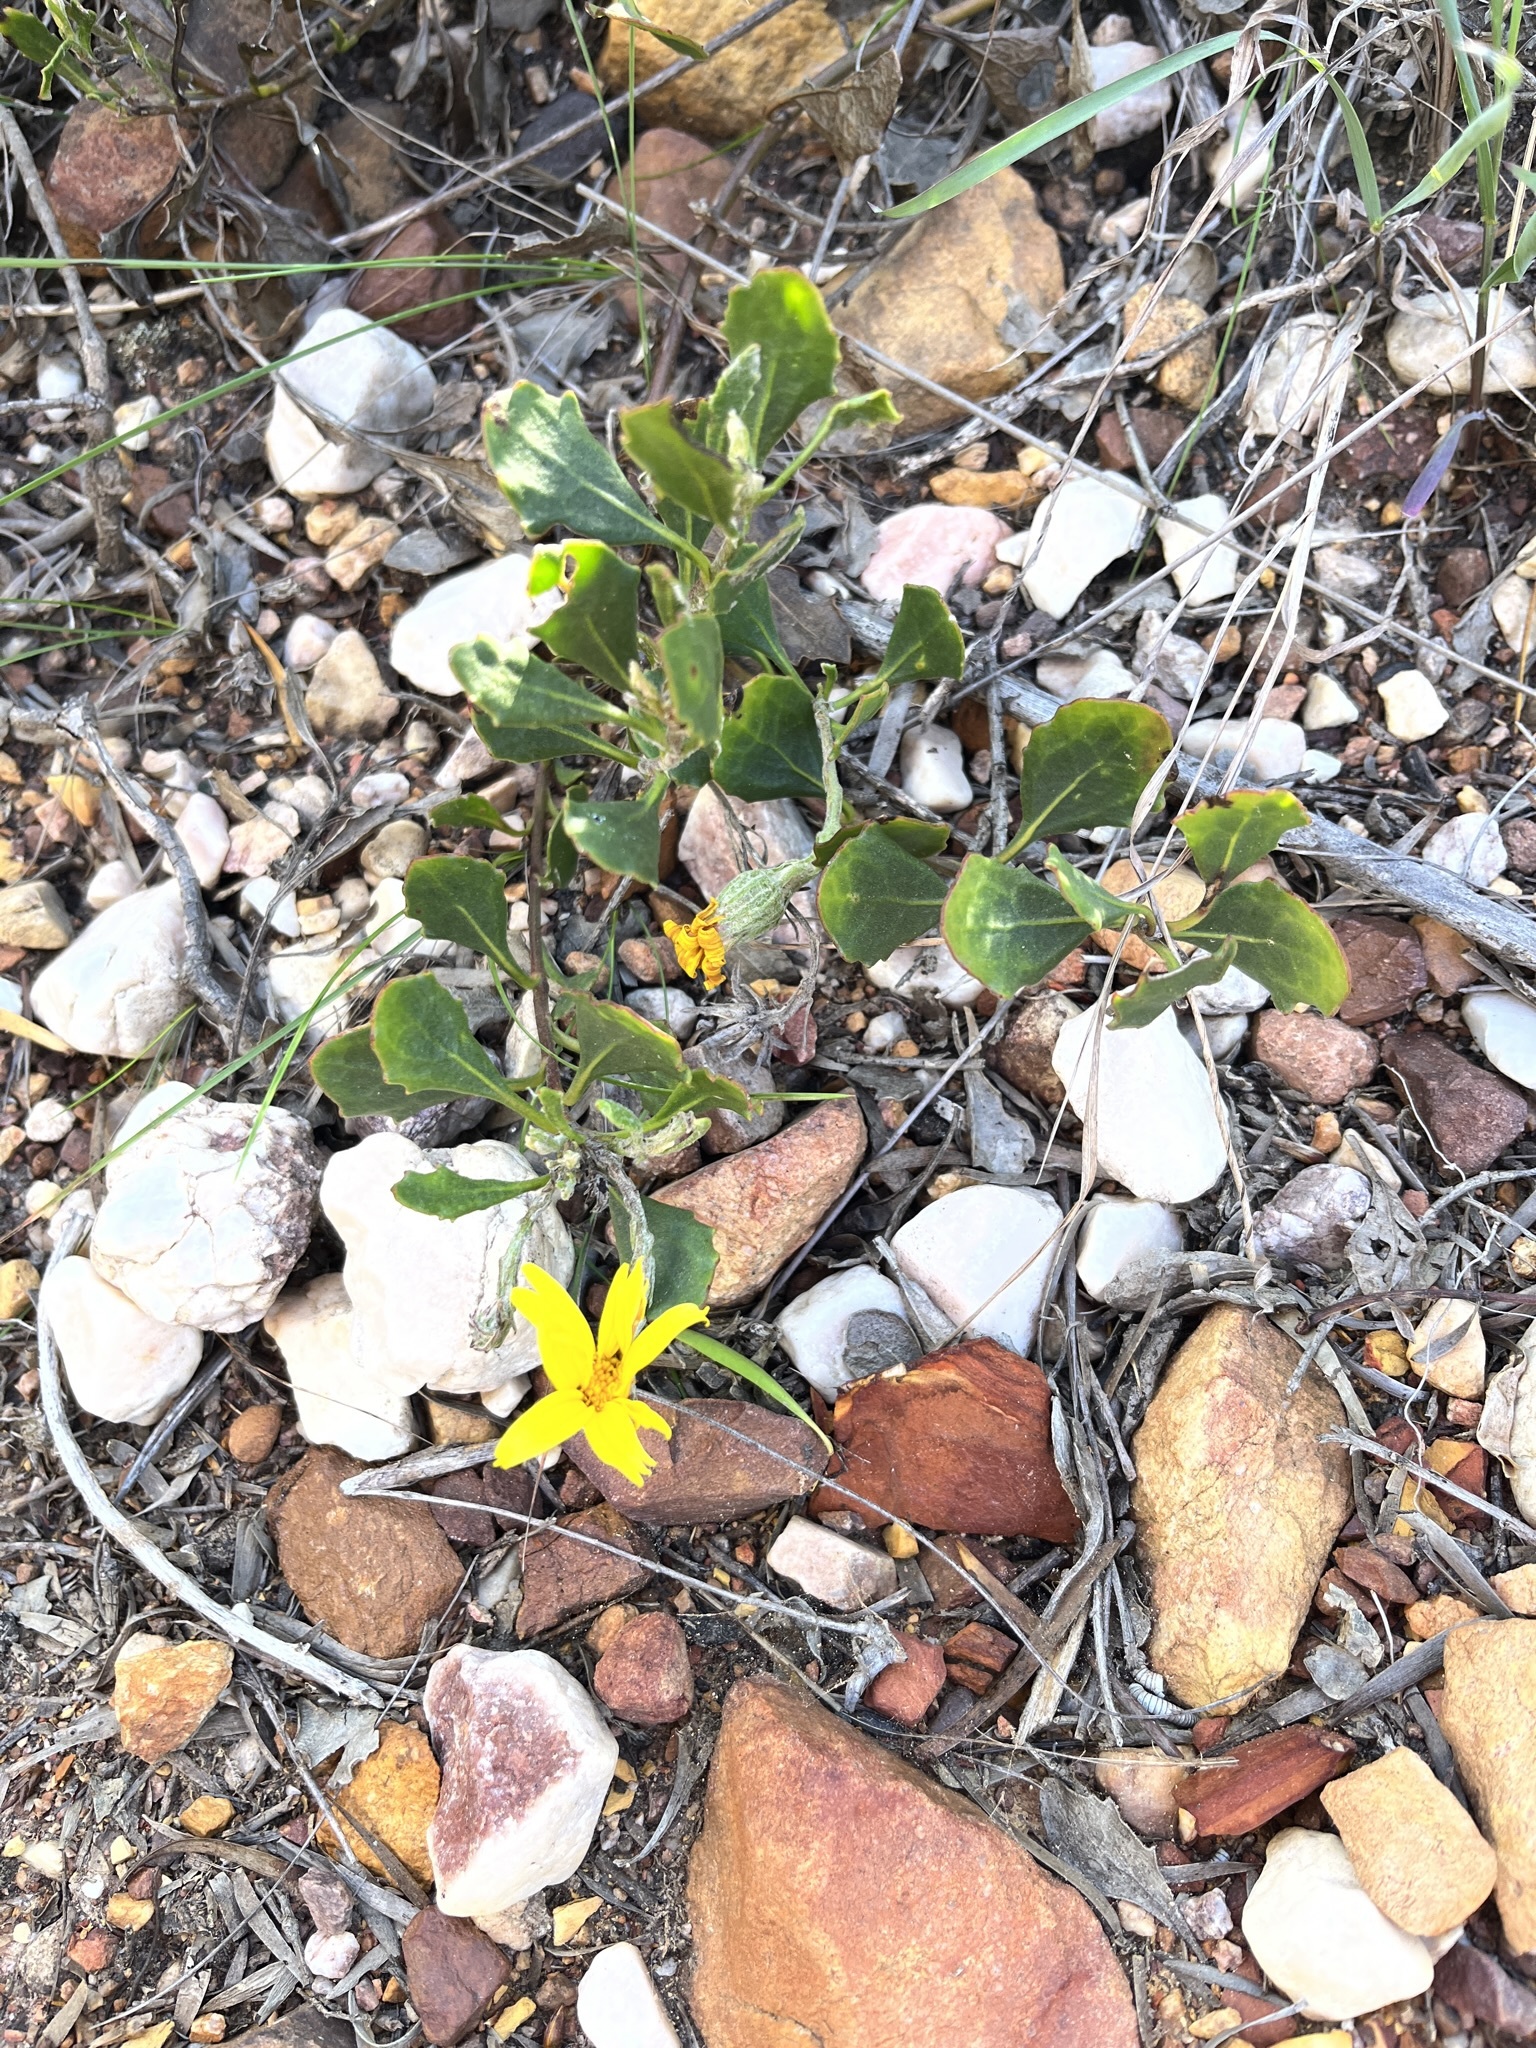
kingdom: Plantae
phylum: Tracheophyta
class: Magnoliopsida
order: Asterales
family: Asteraceae
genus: Osteospermum
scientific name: Osteospermum moniliferum
